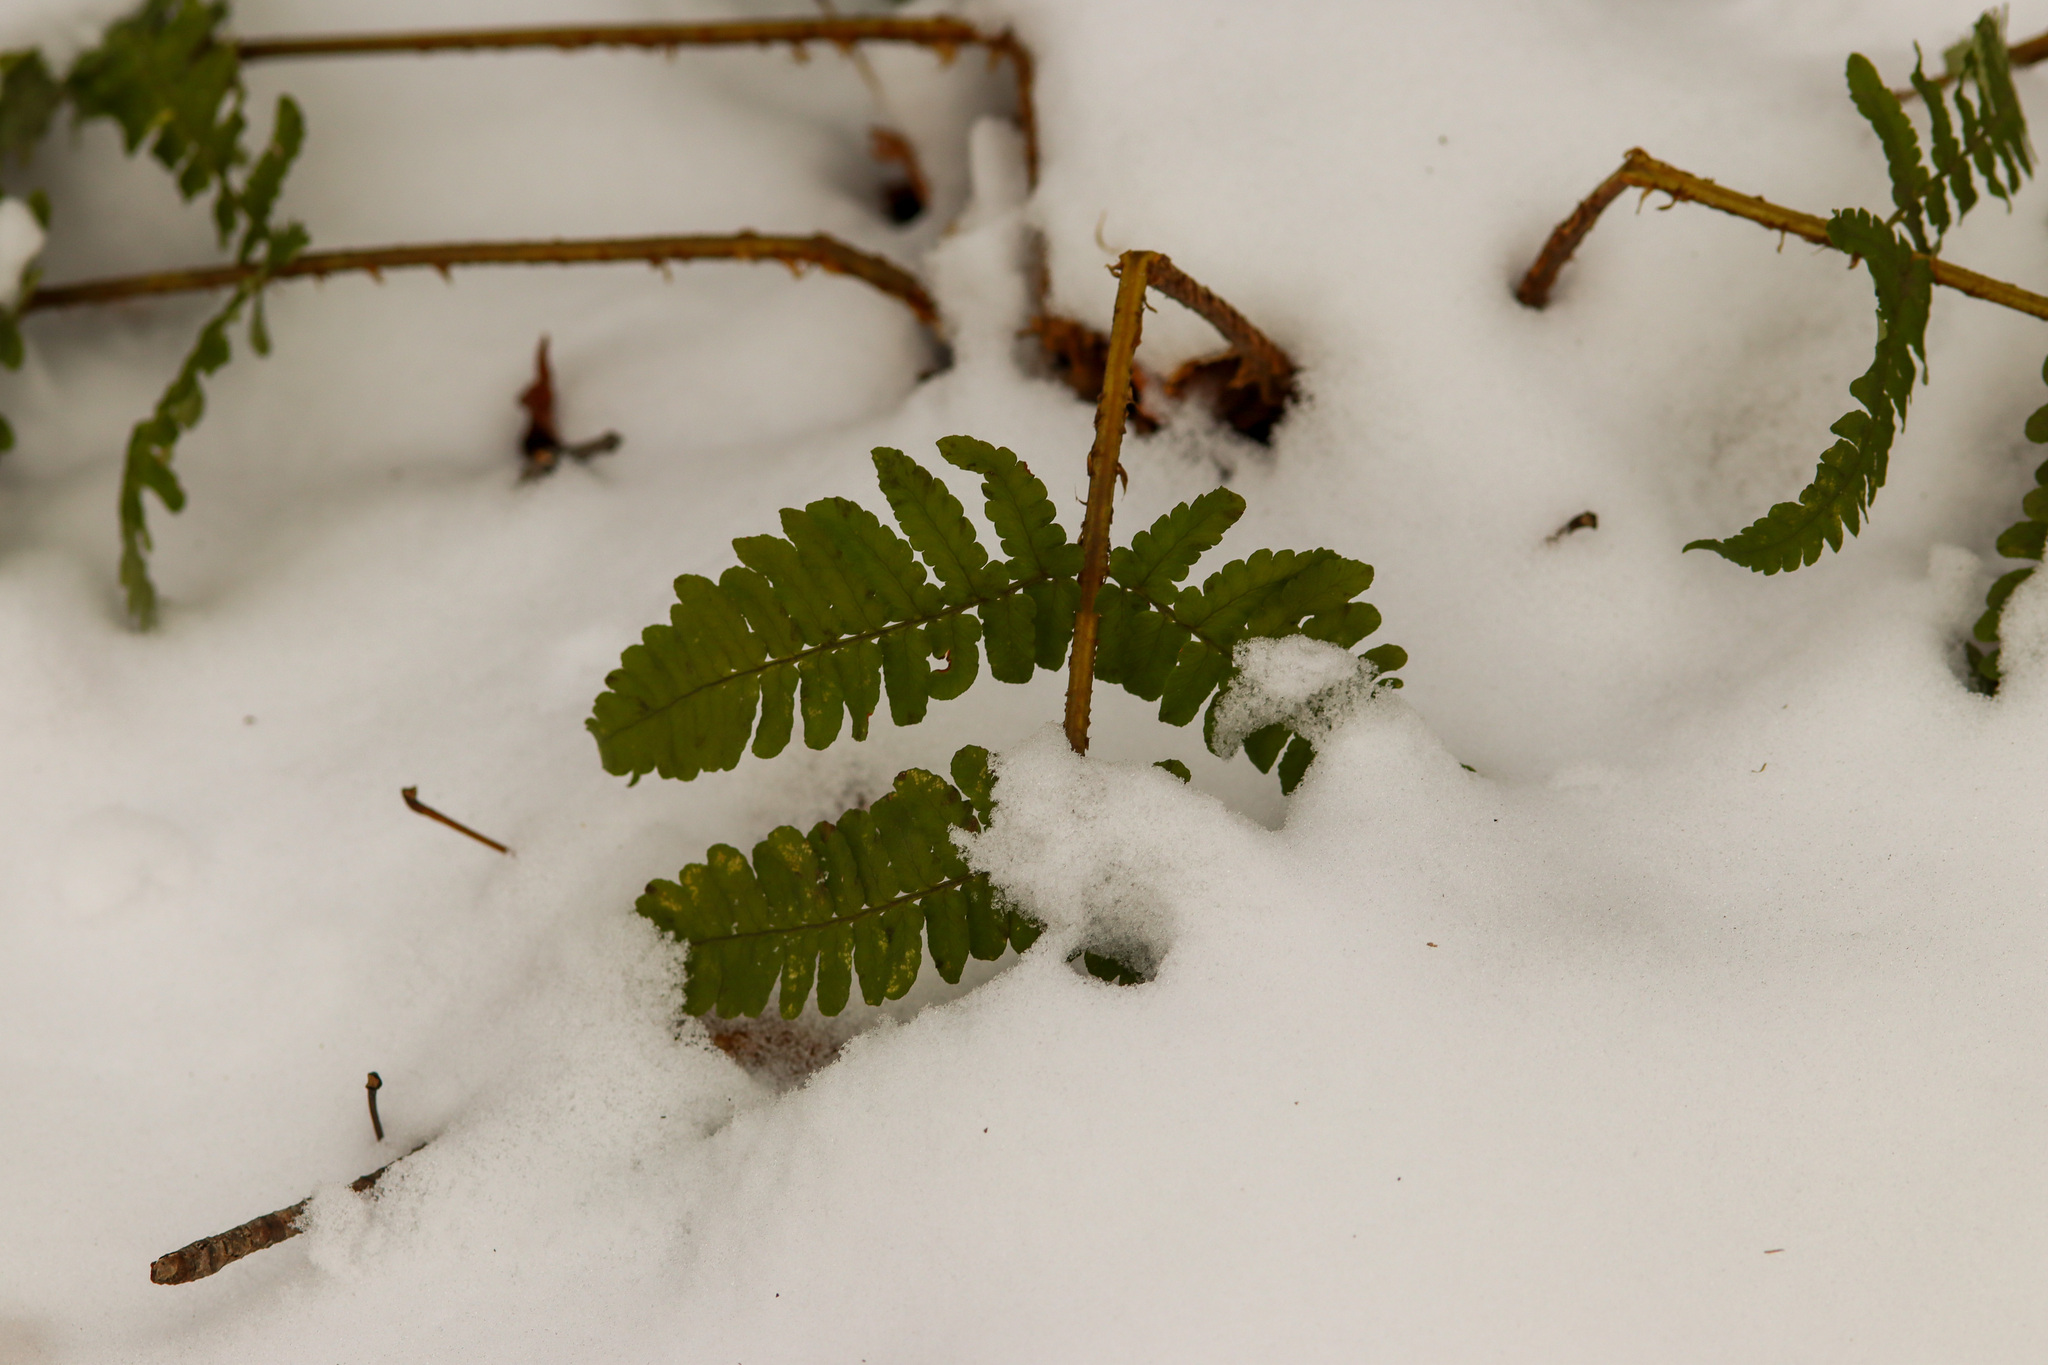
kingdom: Plantae
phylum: Tracheophyta
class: Polypodiopsida
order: Polypodiales
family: Dryopteridaceae
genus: Dryopteris
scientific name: Dryopteris marginalis
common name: Marginal wood fern
